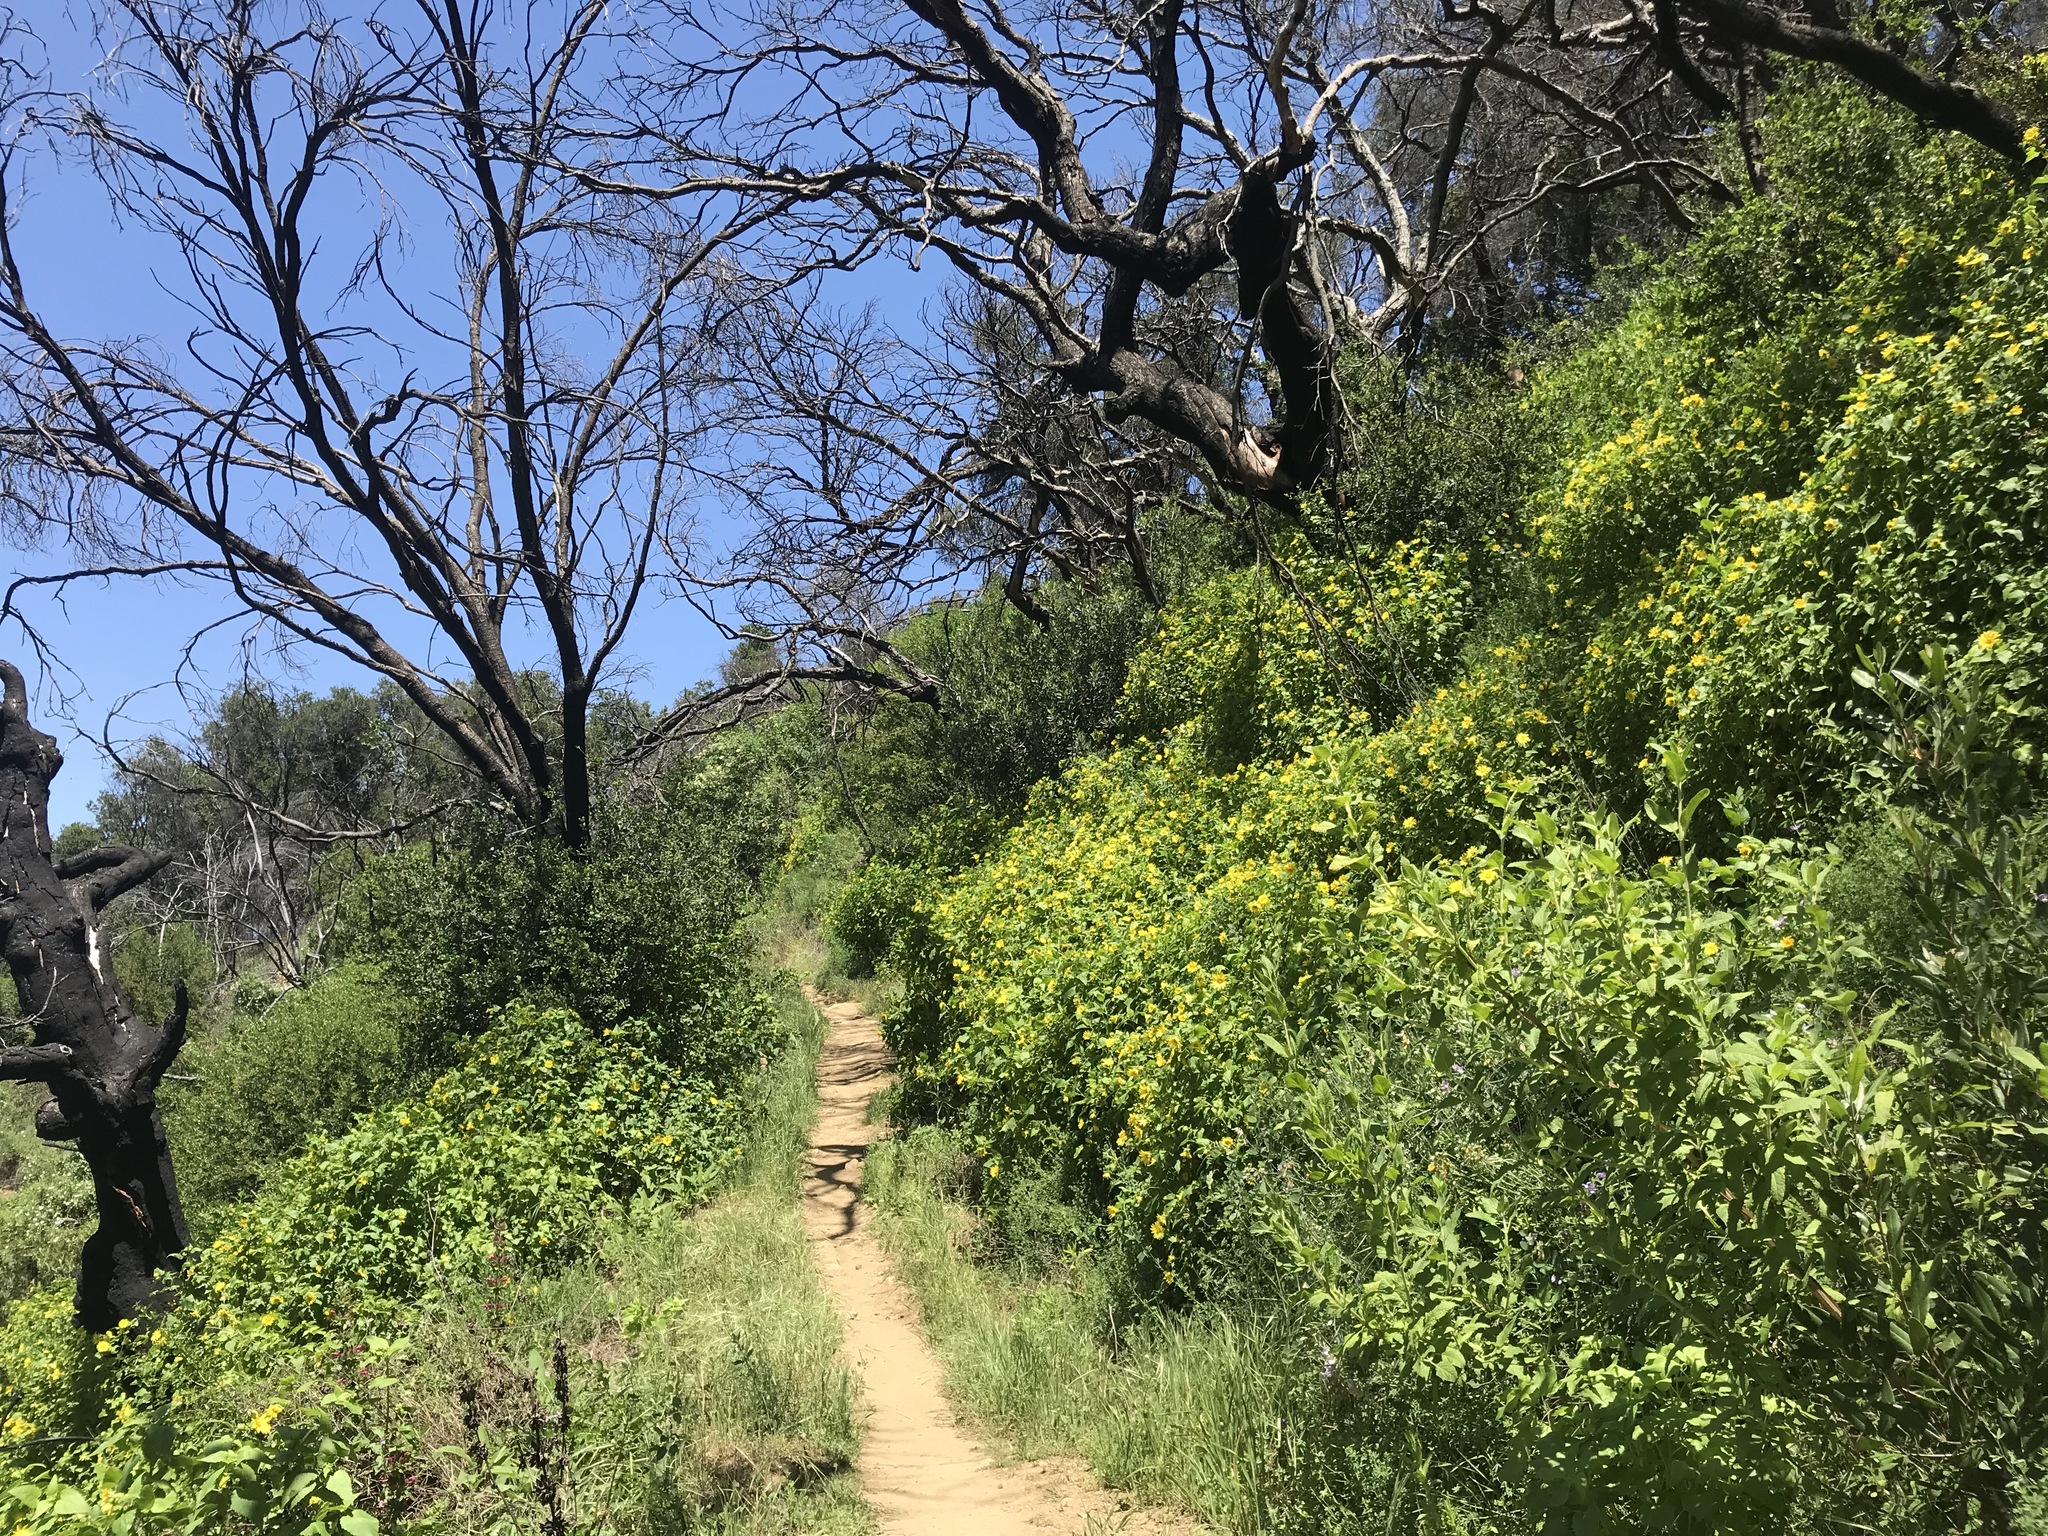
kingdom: Plantae
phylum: Tracheophyta
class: Magnoliopsida
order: Asterales
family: Asteraceae
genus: Venegasia
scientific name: Venegasia carpesioides
